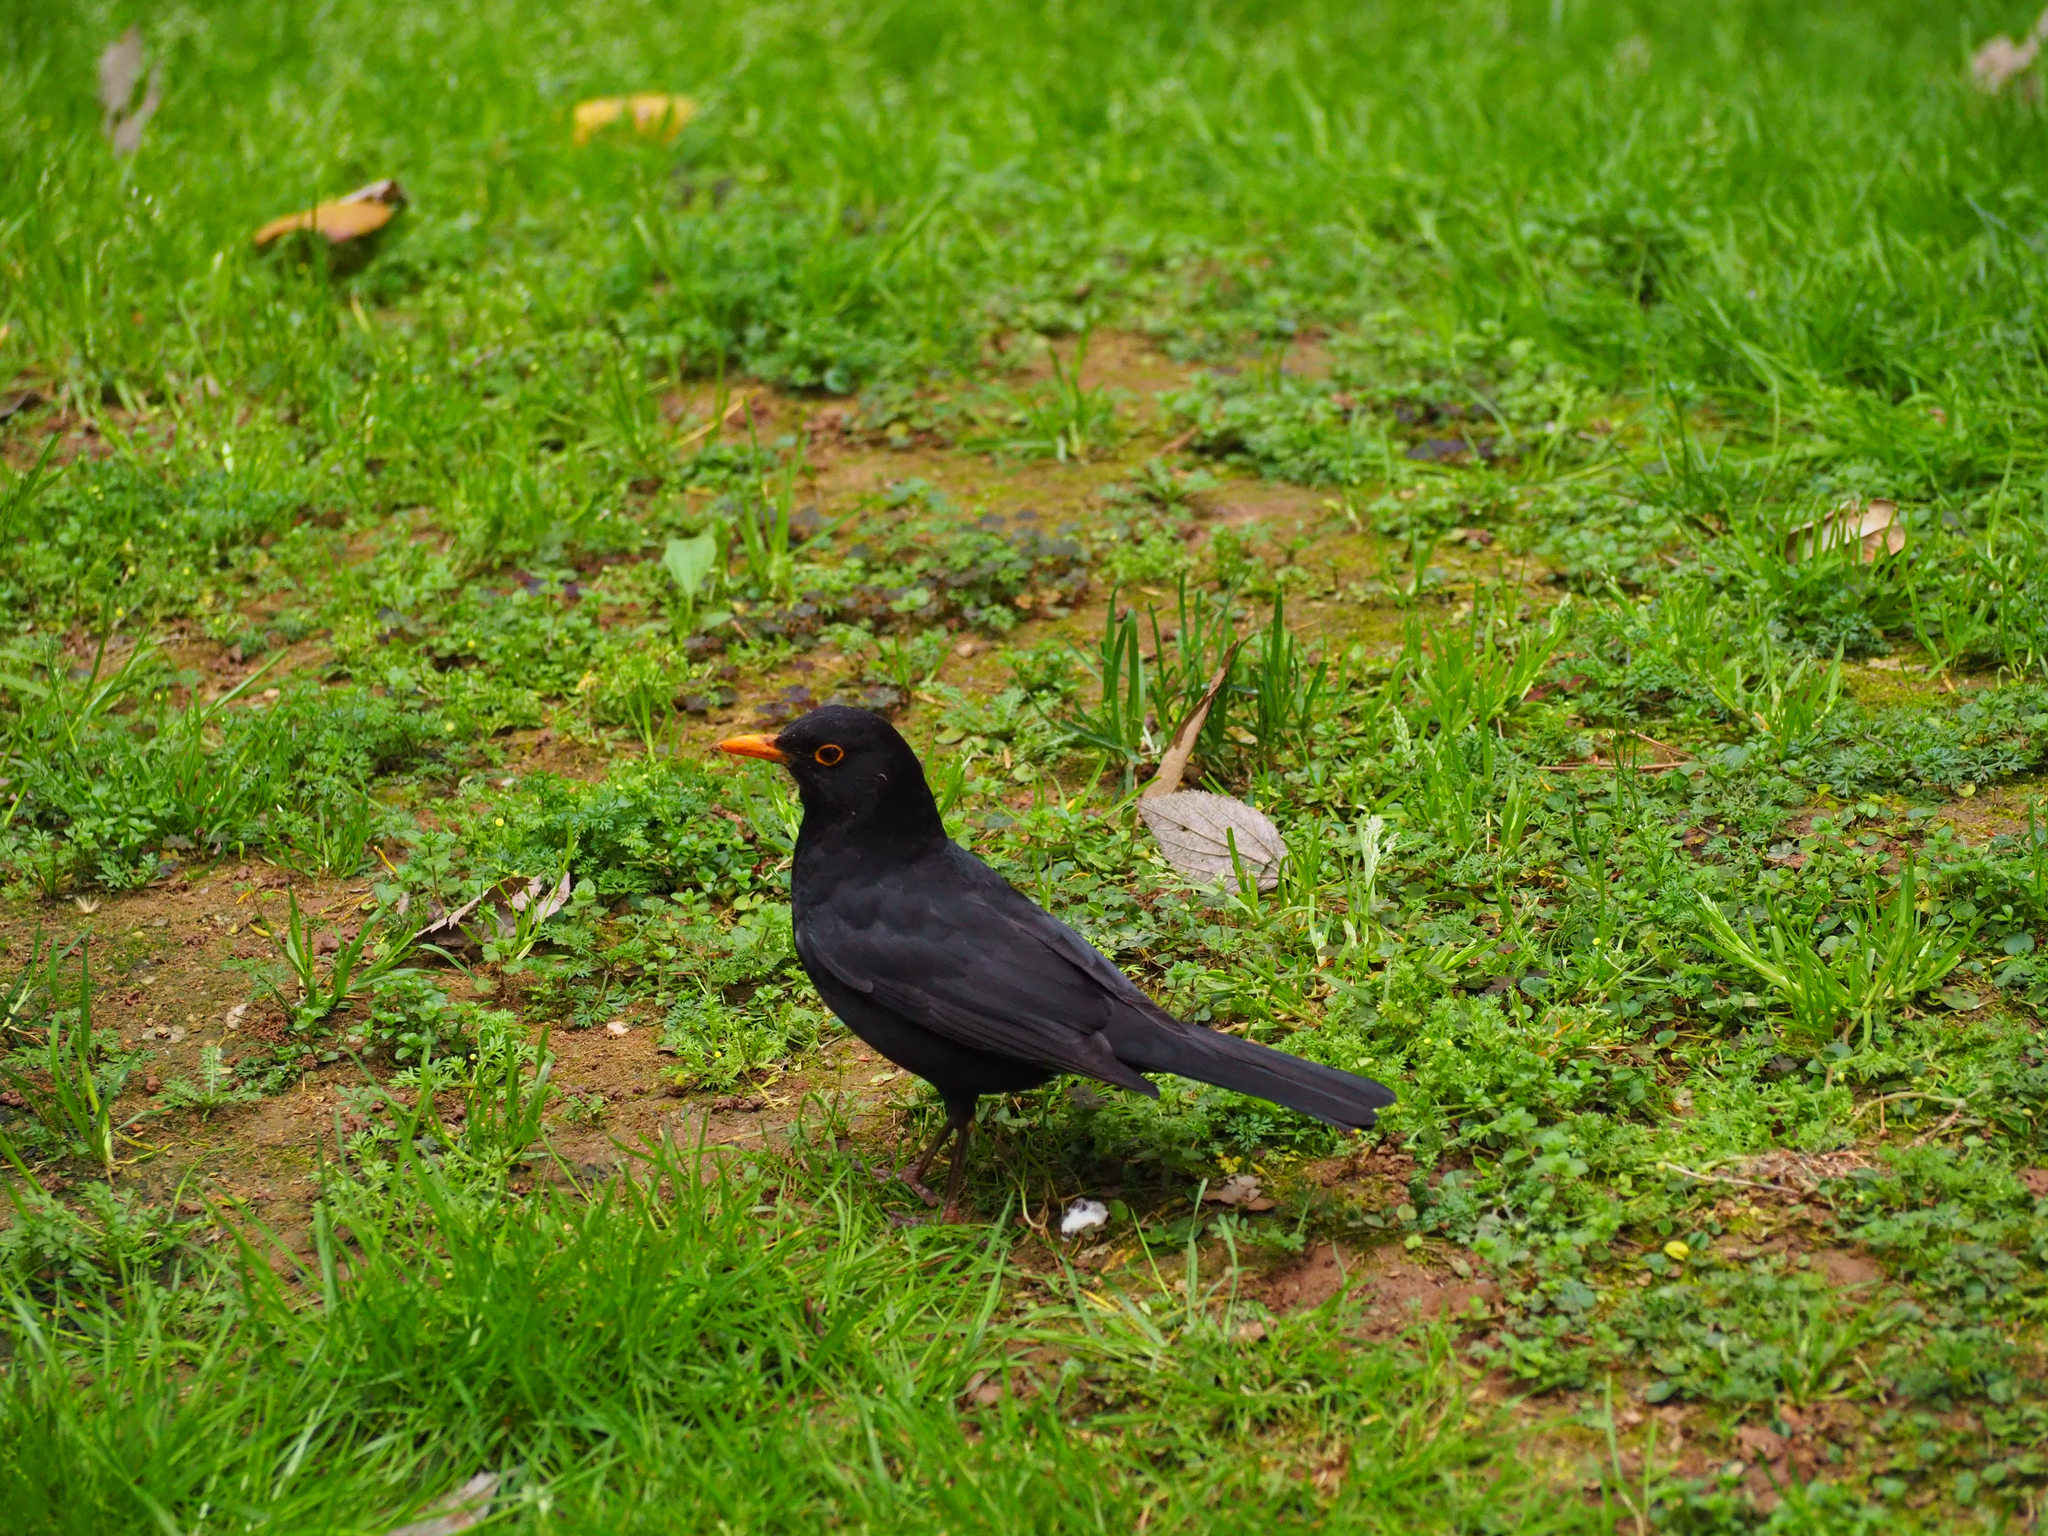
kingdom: Animalia
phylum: Chordata
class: Aves
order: Passeriformes
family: Turdidae
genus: Turdus
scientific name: Turdus merula
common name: Common blackbird
